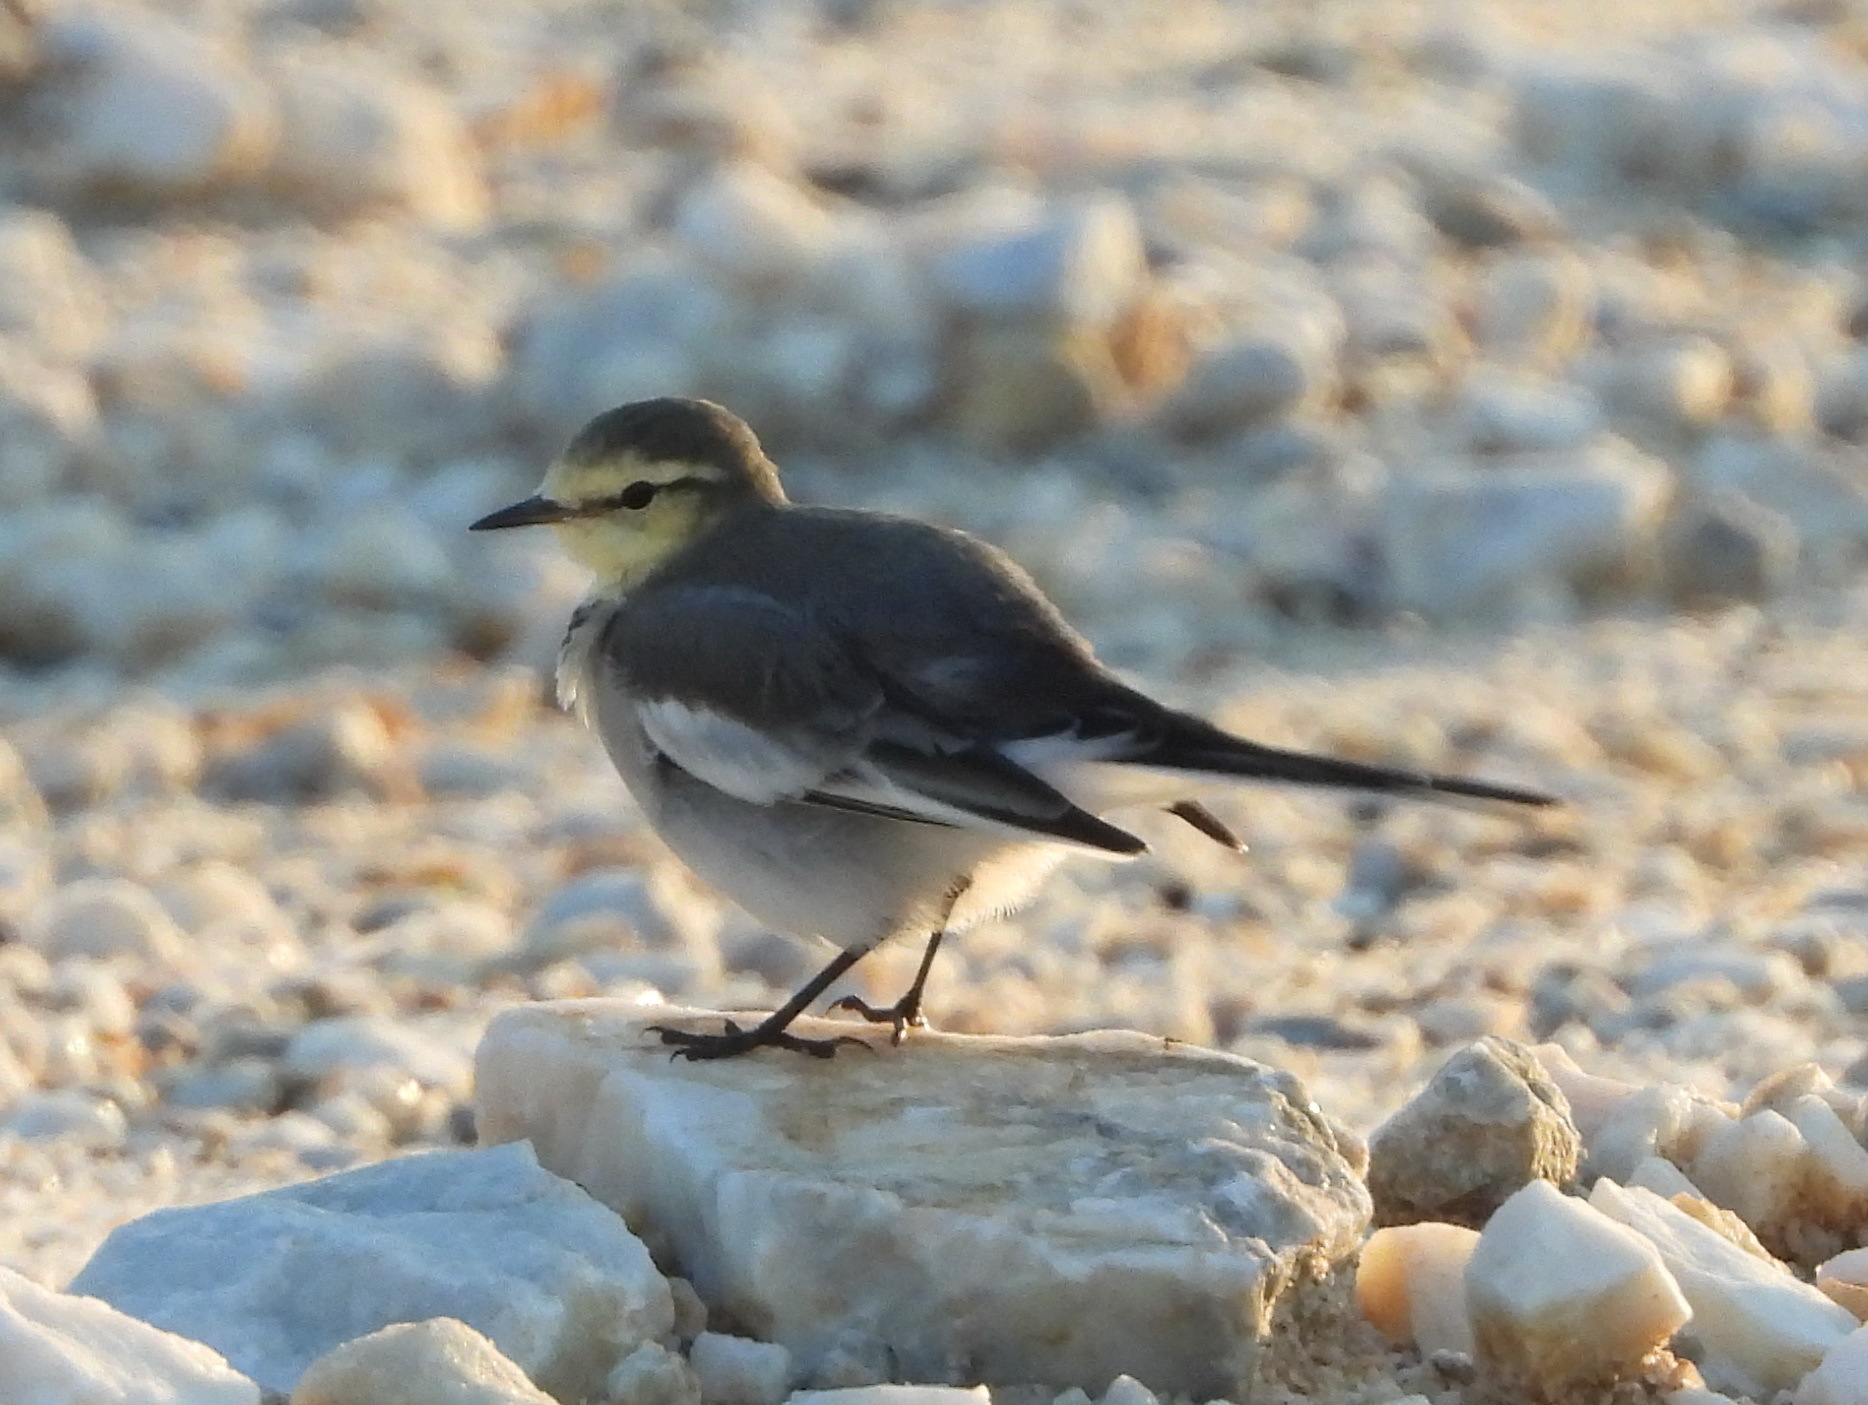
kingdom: Animalia
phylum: Chordata
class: Aves
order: Passeriformes
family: Motacillidae
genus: Motacilla
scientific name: Motacilla alba
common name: White wagtail
